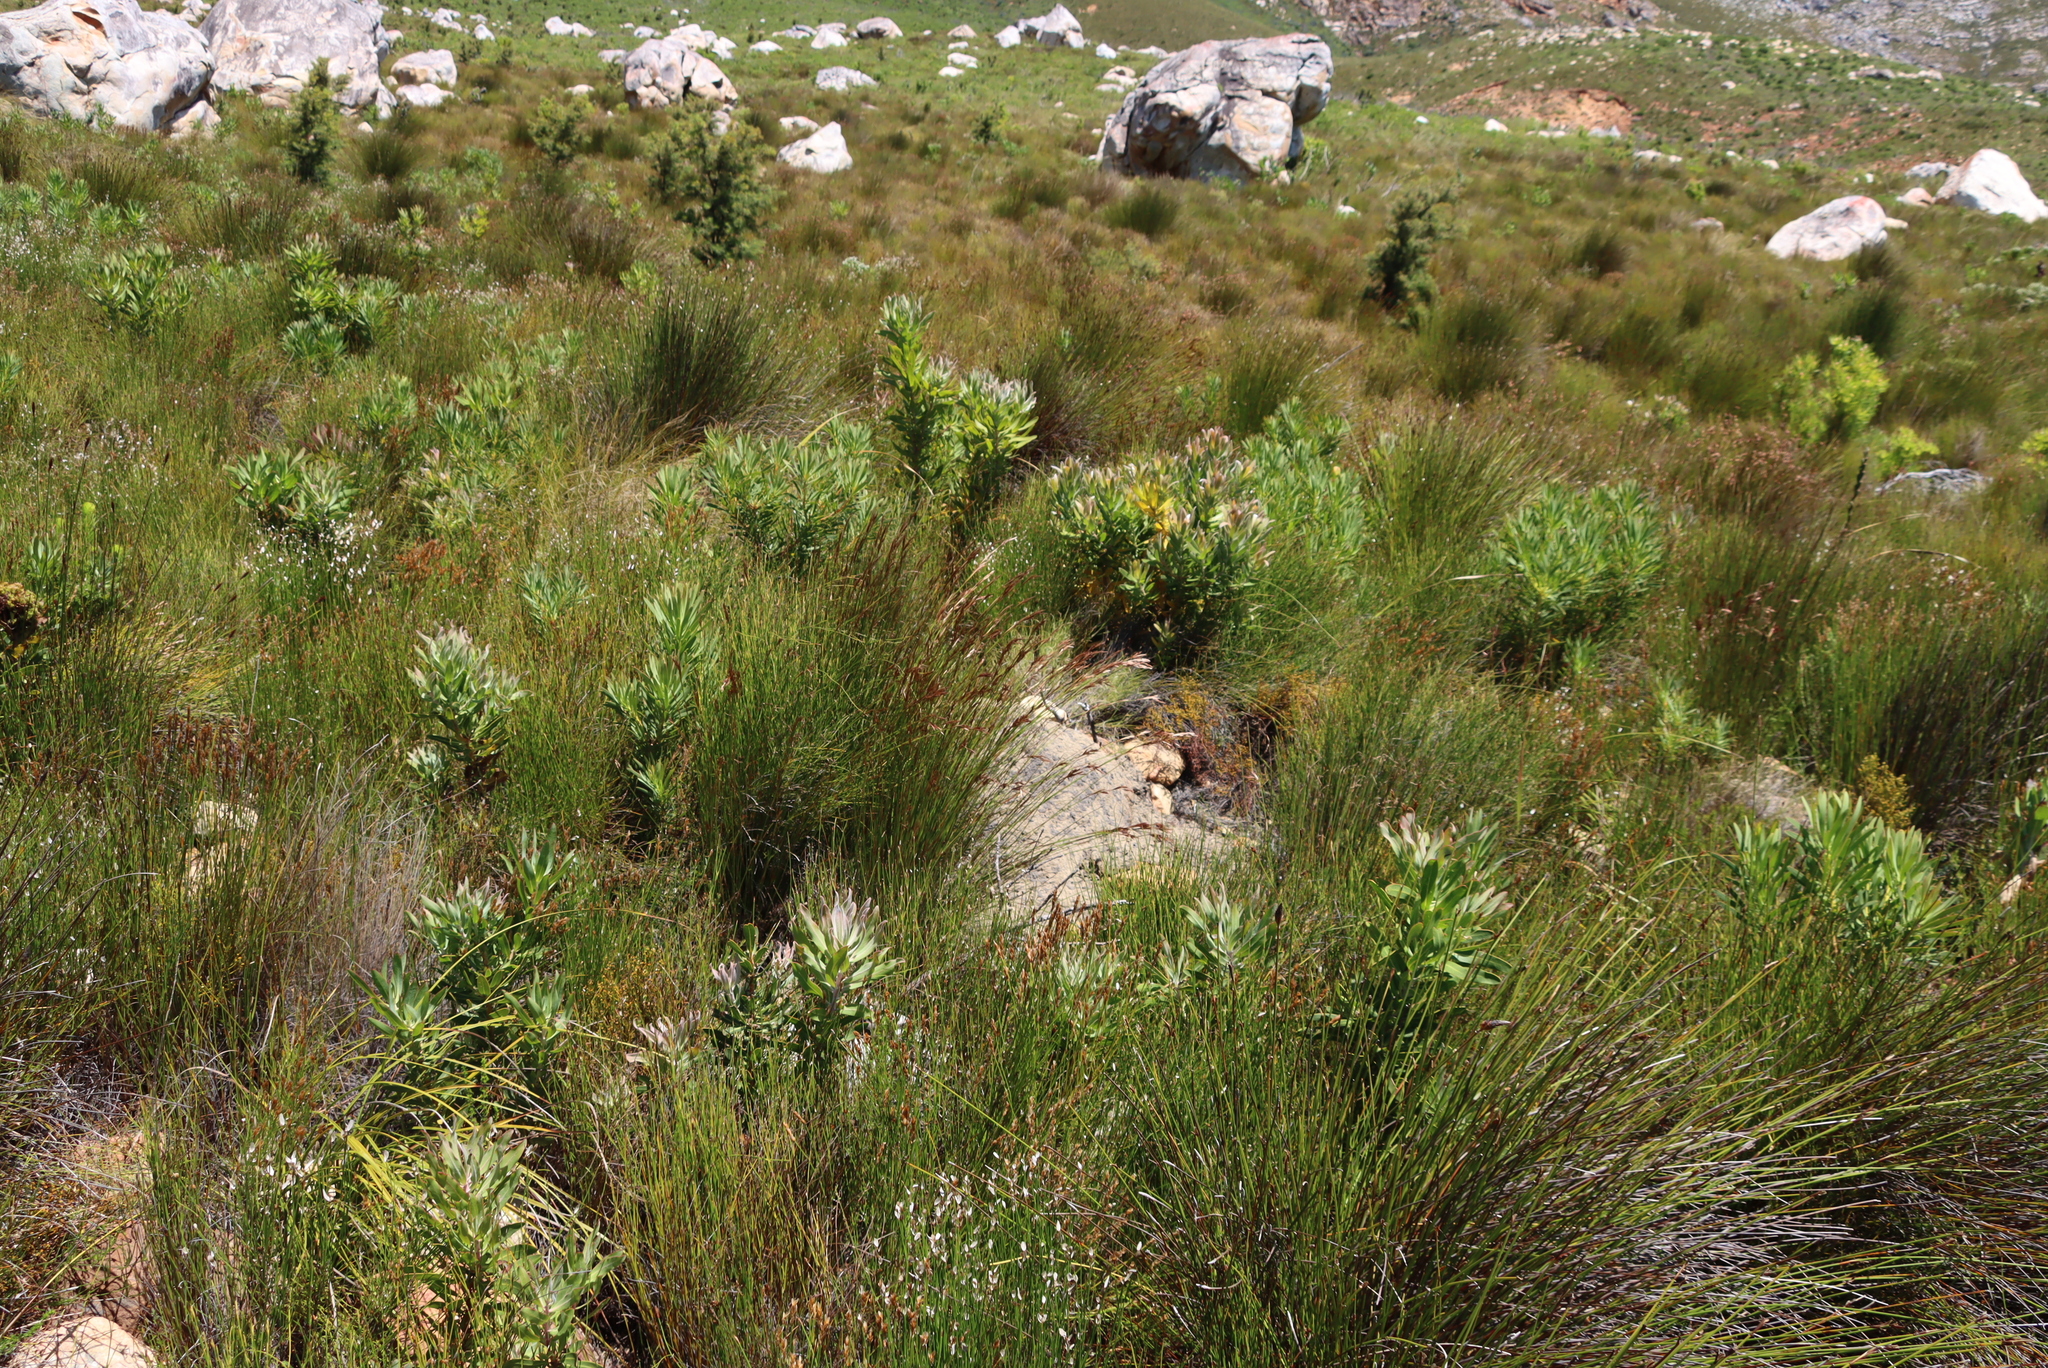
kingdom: Plantae
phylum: Tracheophyta
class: Magnoliopsida
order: Proteales
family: Proteaceae
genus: Protea
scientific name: Protea laurifolia
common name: Grey-leaf sugarbsh
